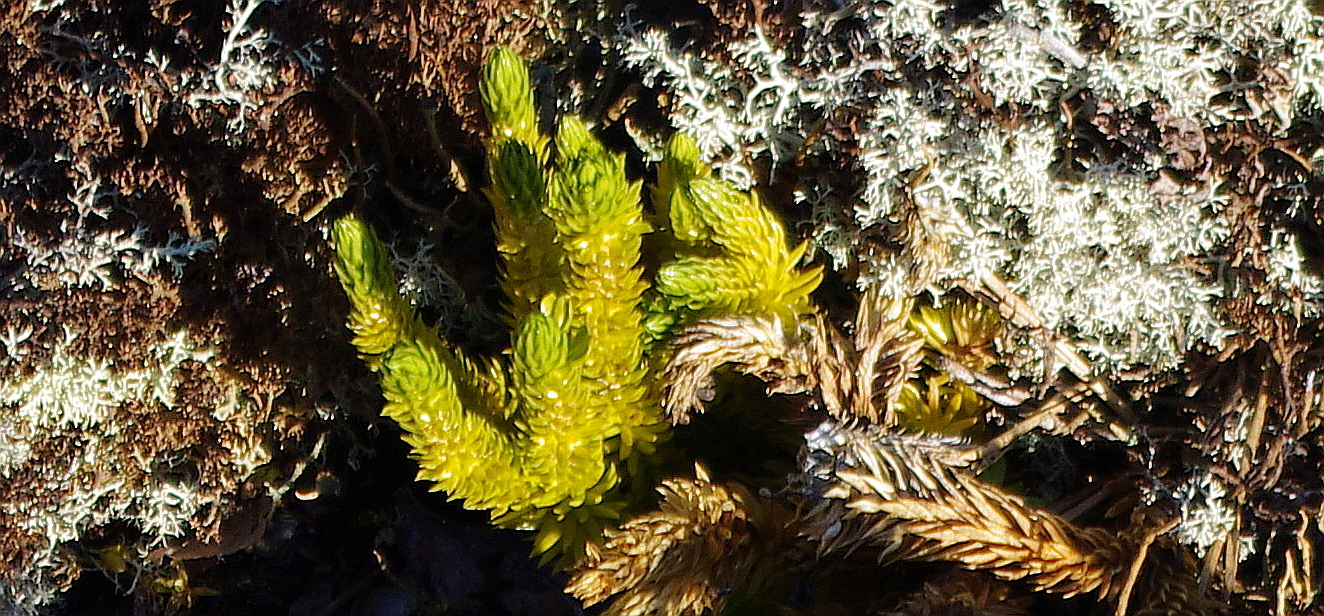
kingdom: Plantae
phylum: Tracheophyta
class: Lycopodiopsida
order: Lycopodiales
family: Lycopodiaceae
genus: Huperzia
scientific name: Huperzia selago
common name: Northern firmoss
